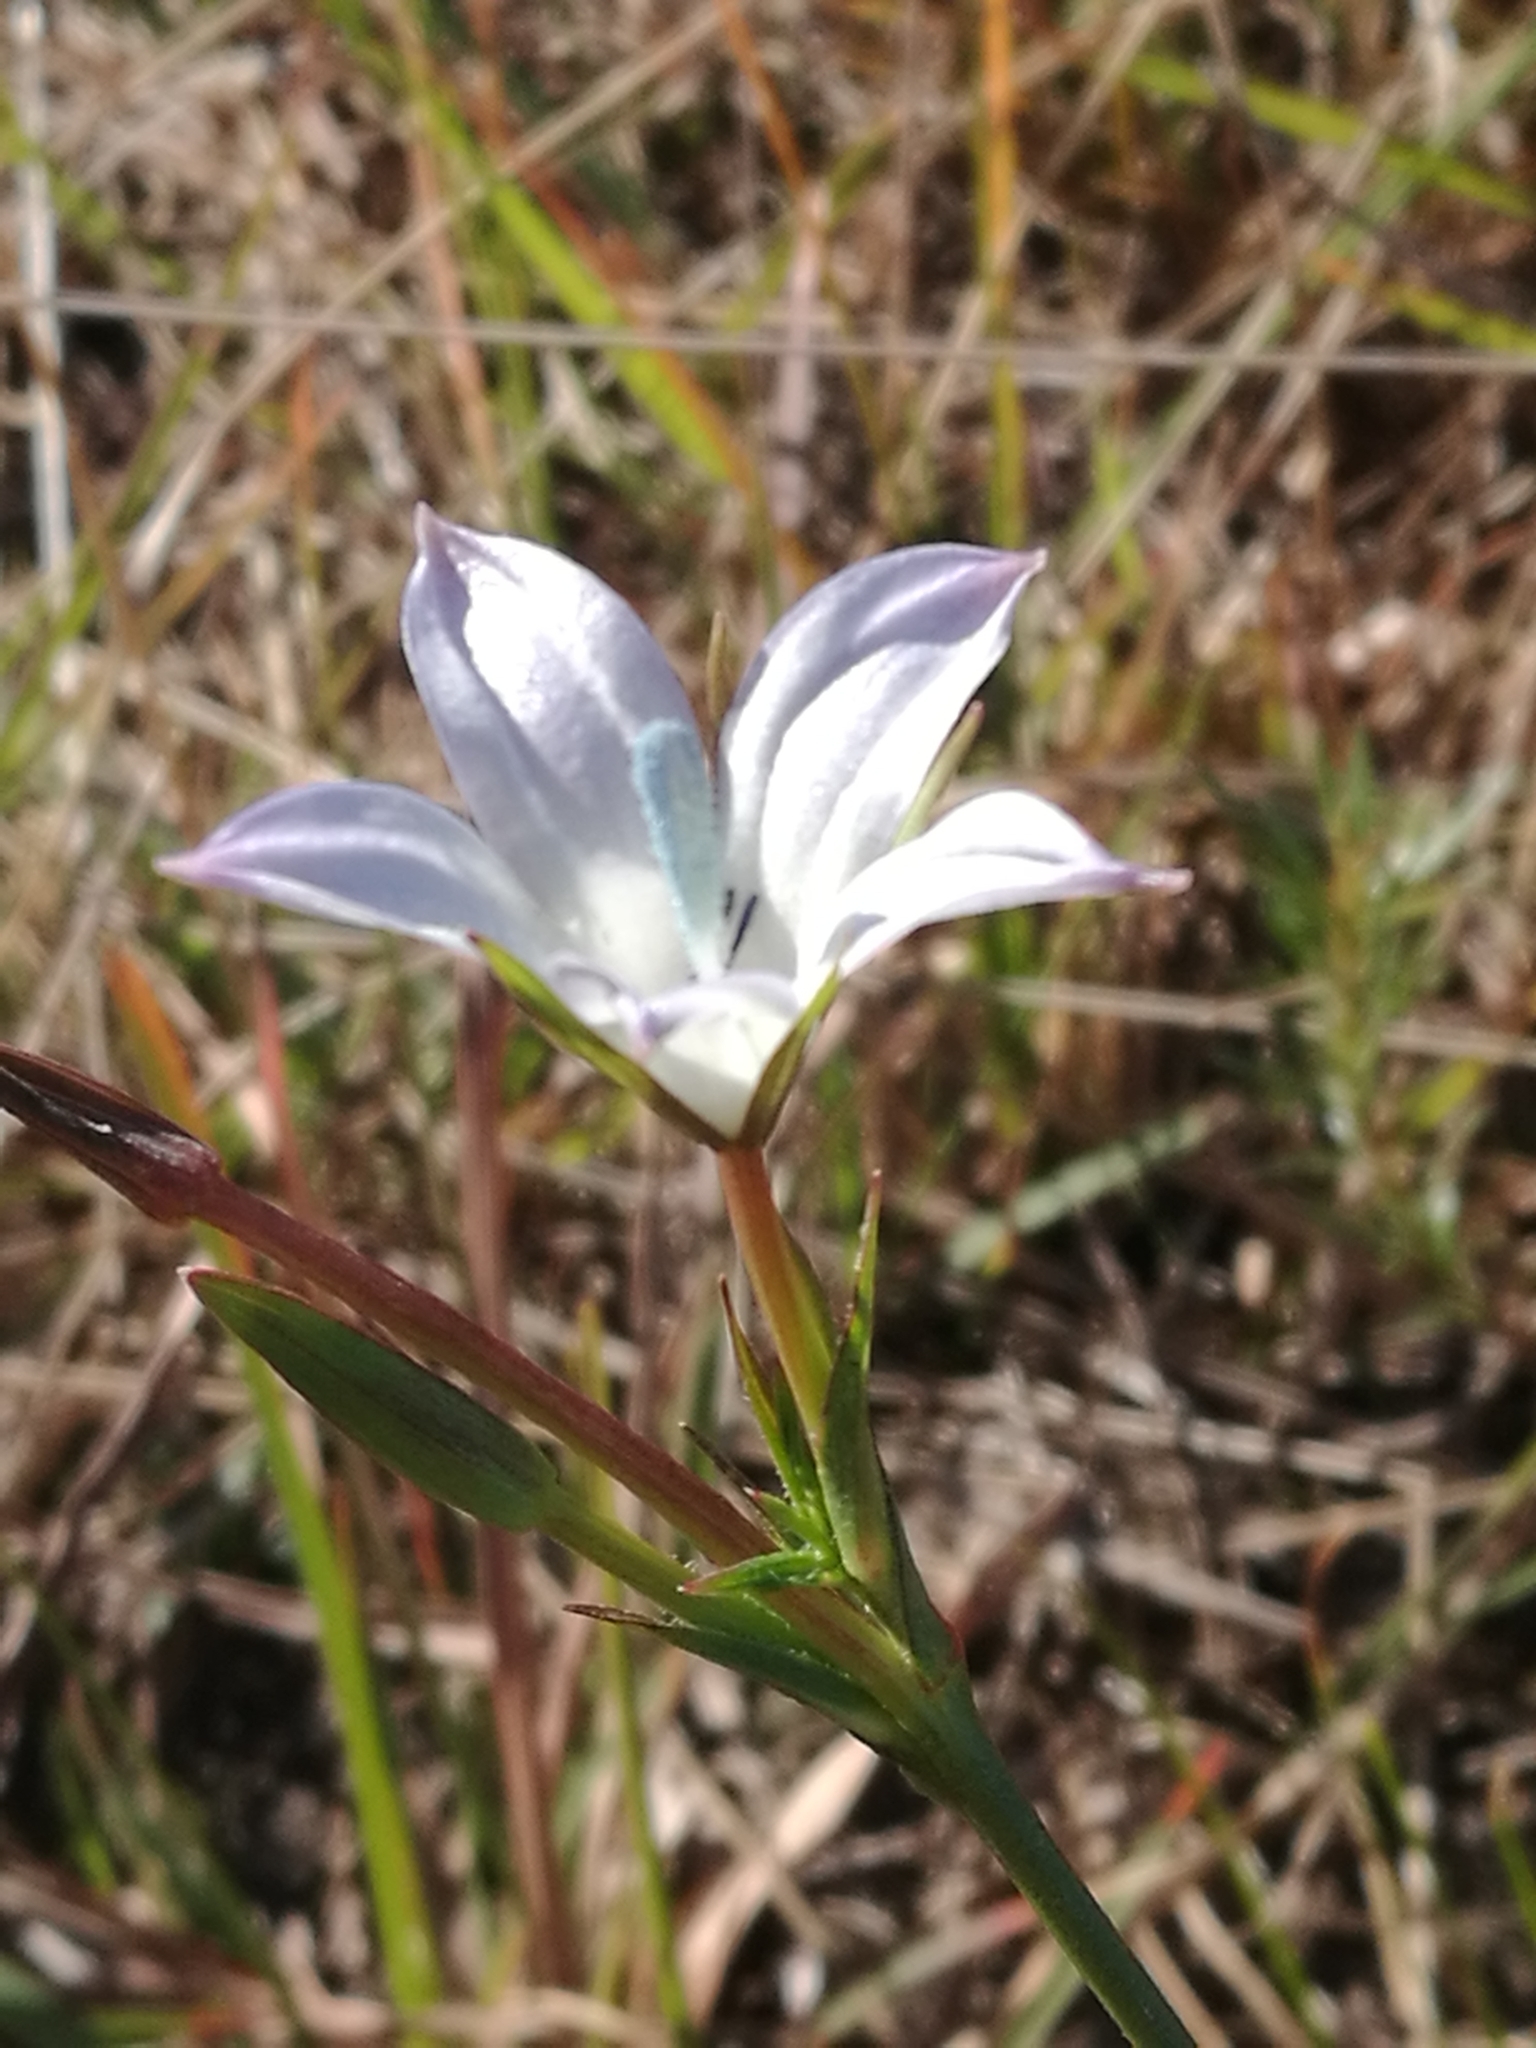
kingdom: Plantae
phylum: Tracheophyta
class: Magnoliopsida
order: Asterales
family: Campanulaceae
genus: Prismatocarpus
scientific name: Prismatocarpus campanuloides
